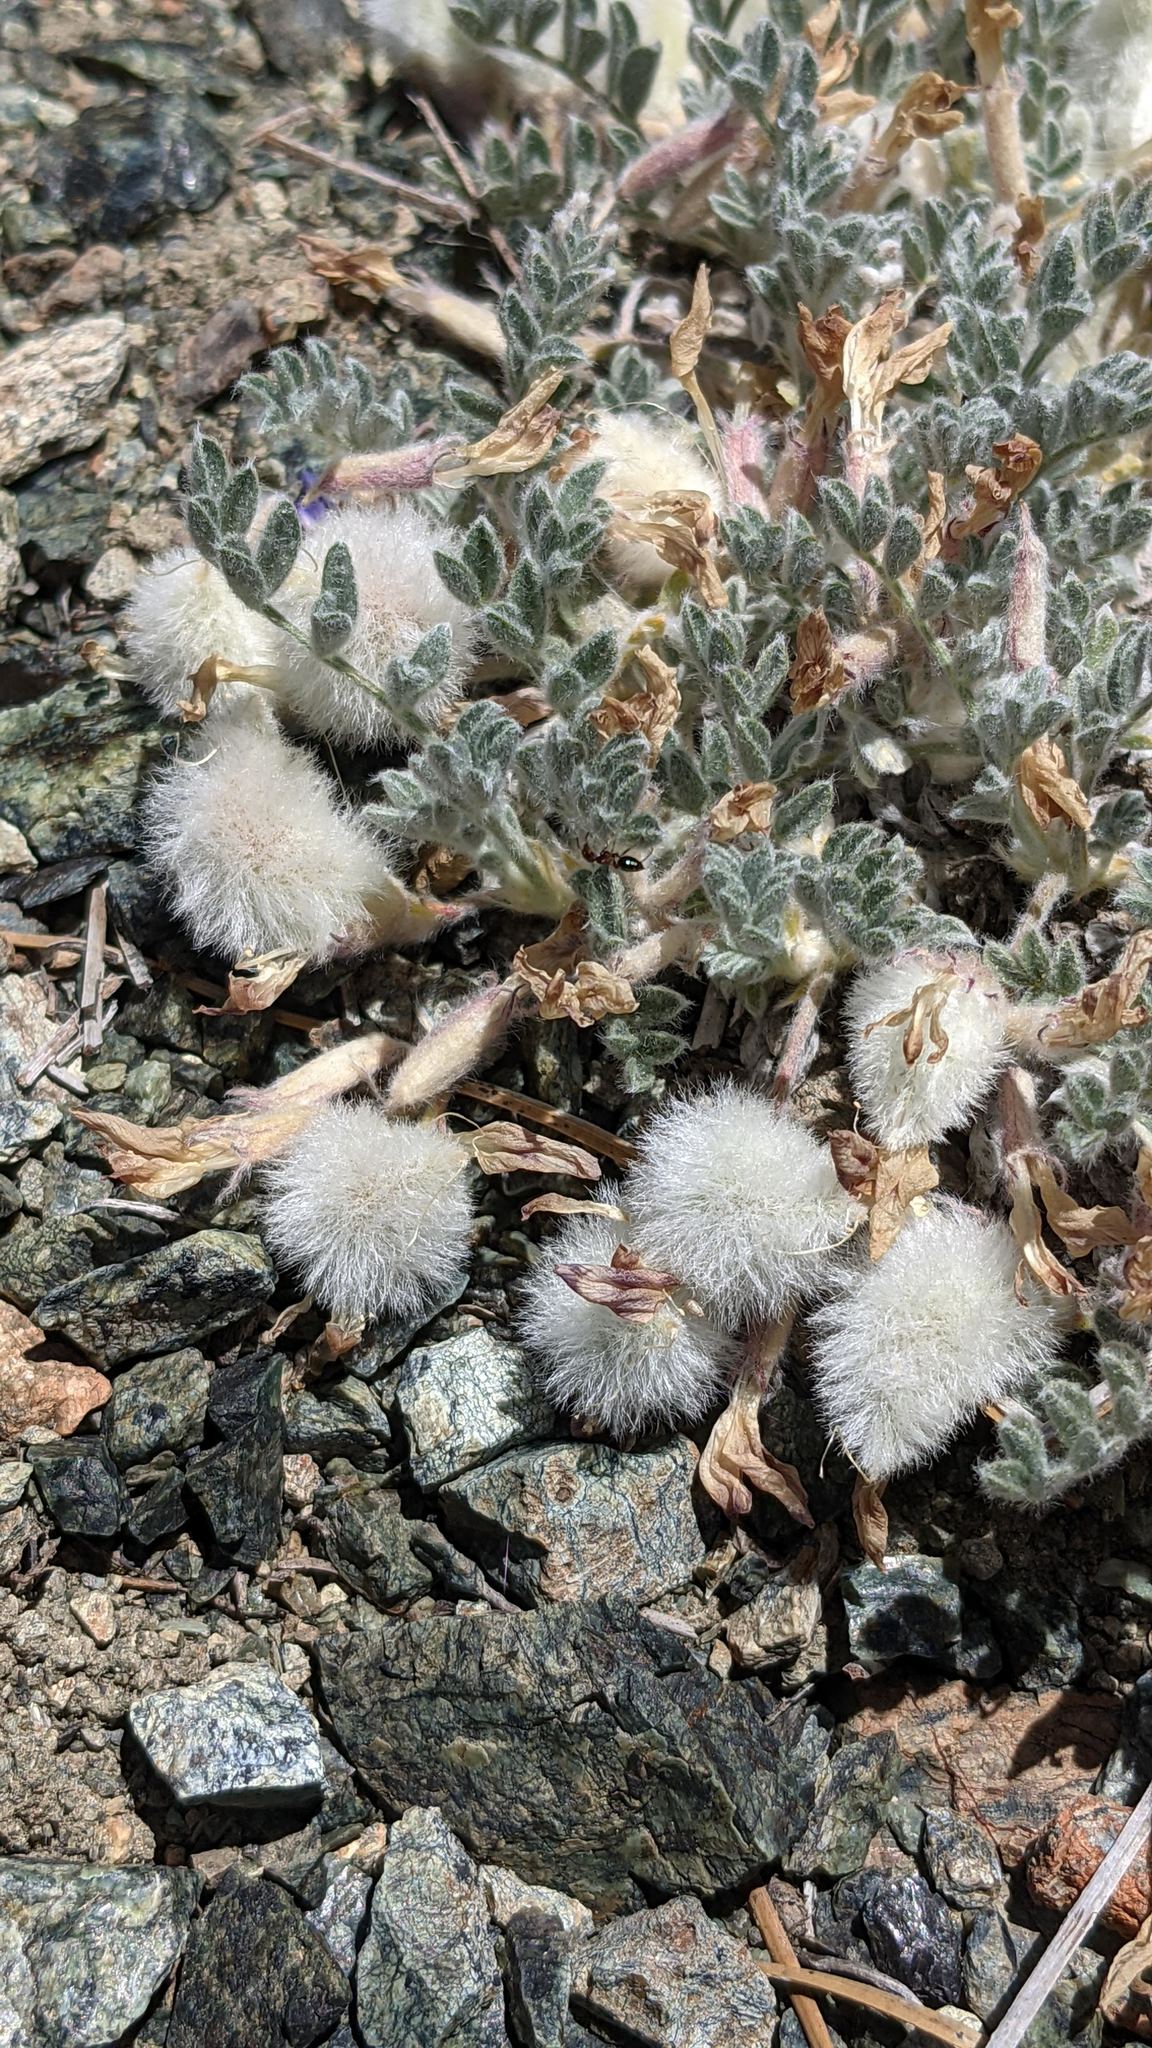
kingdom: Plantae
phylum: Tracheophyta
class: Magnoliopsida
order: Fabales
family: Fabaceae
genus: Astragalus
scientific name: Astragalus purshii
